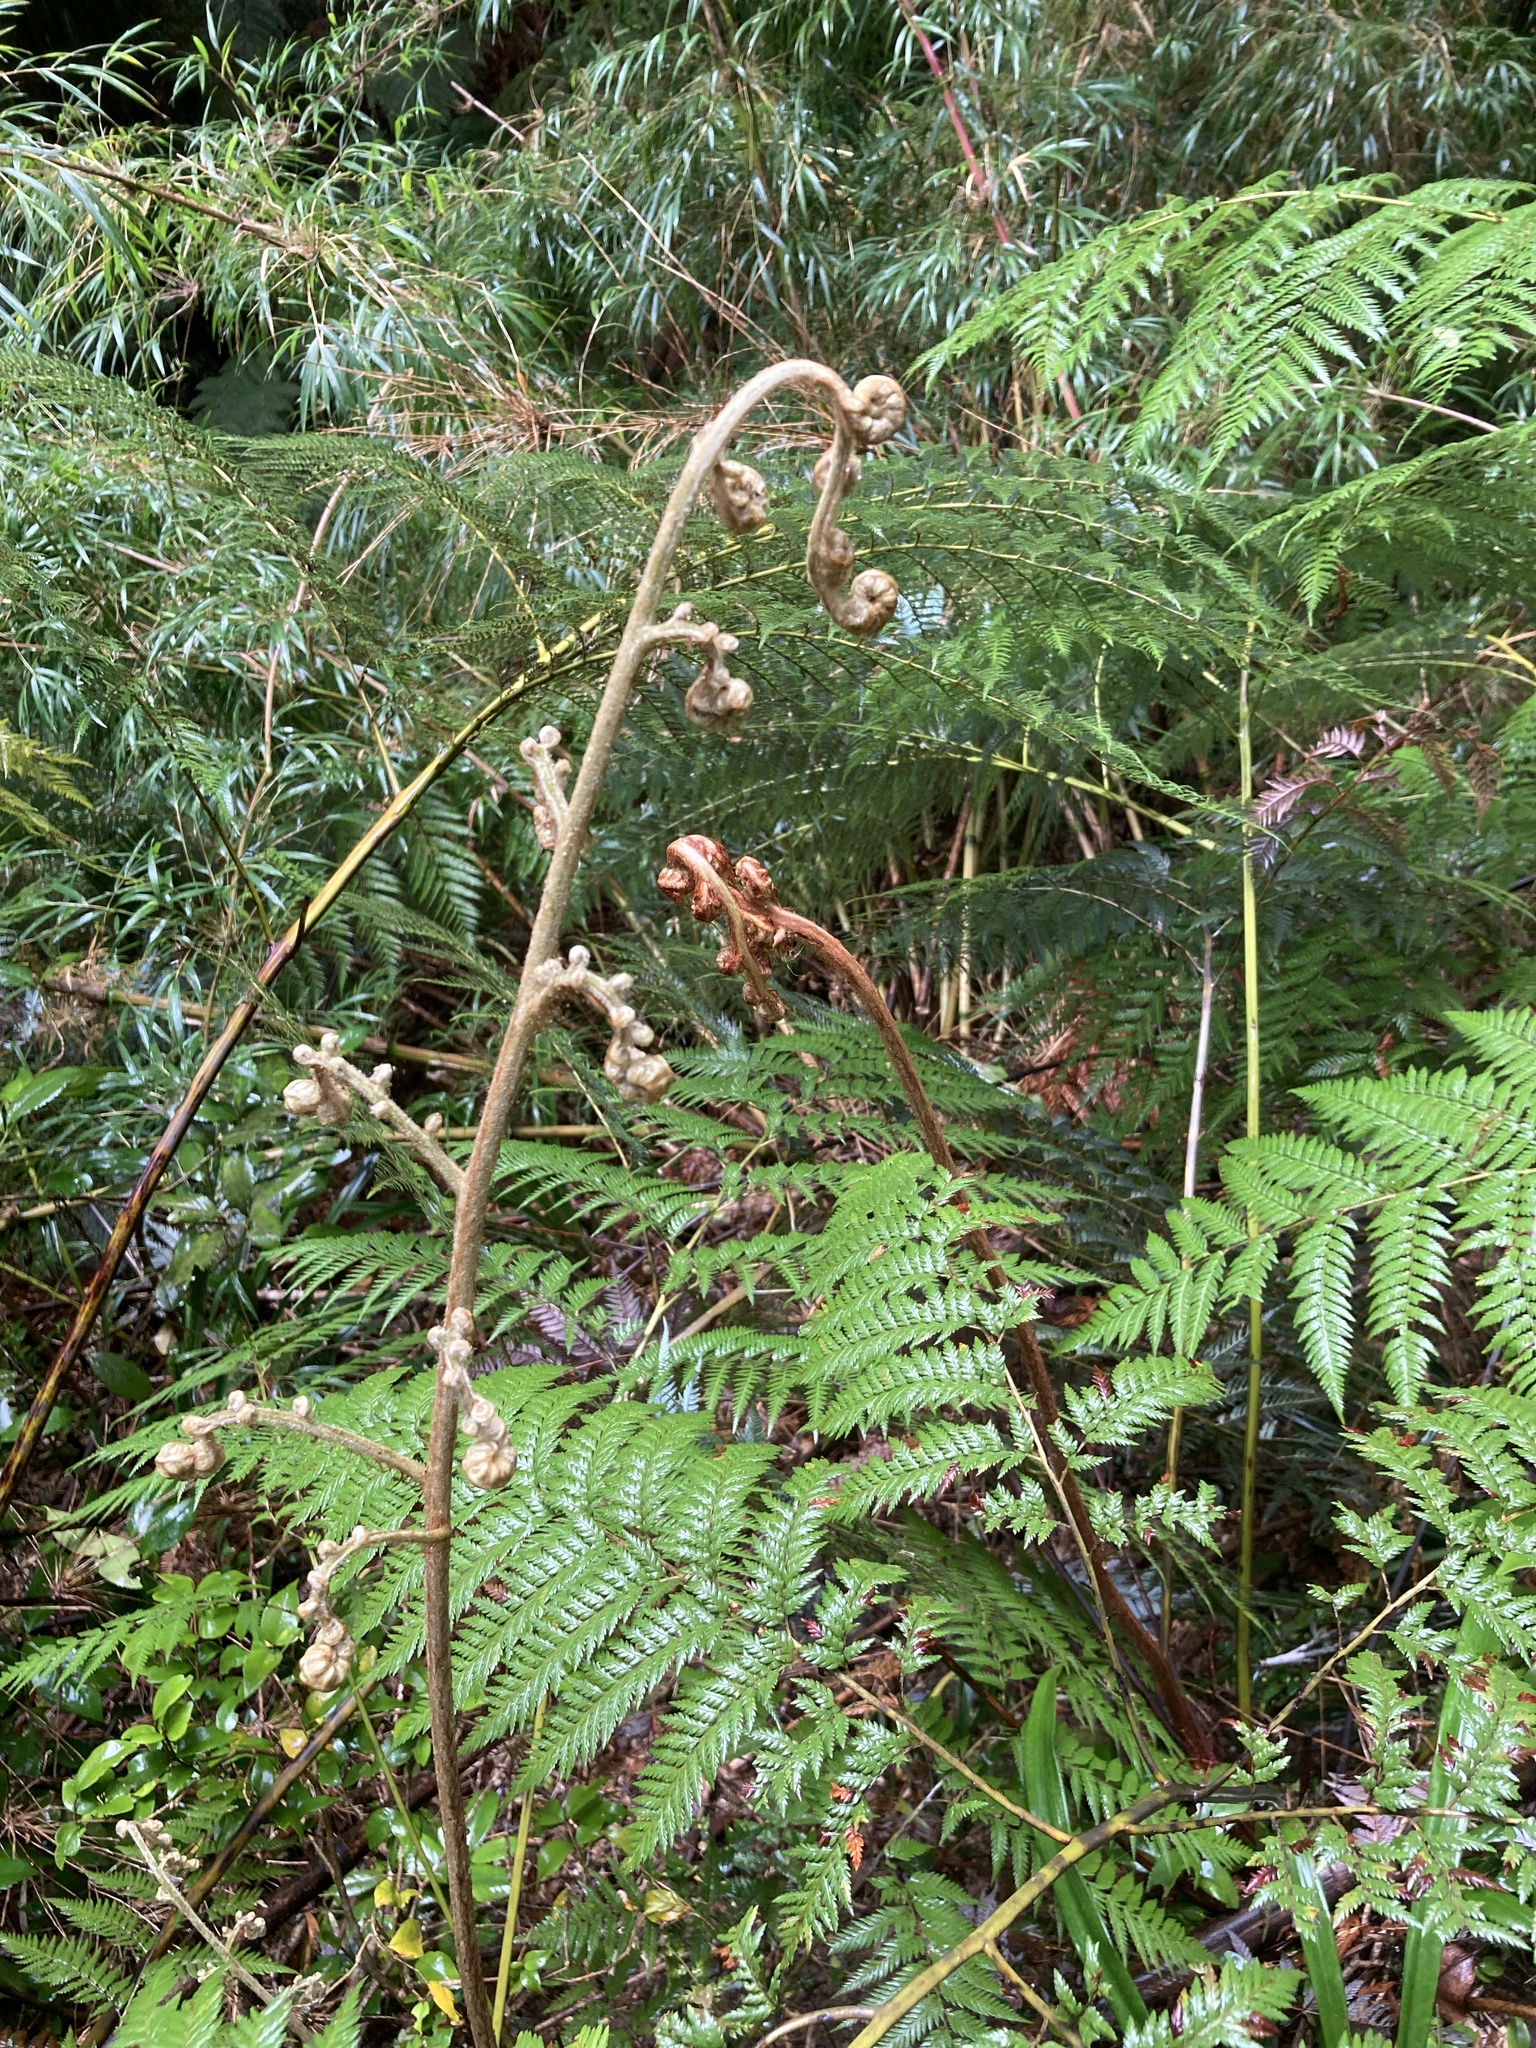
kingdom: Plantae
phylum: Tracheophyta
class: Polypodiopsida
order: Cyatheales
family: Dicksoniaceae
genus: Lophosoria
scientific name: Lophosoria quadripinnata
